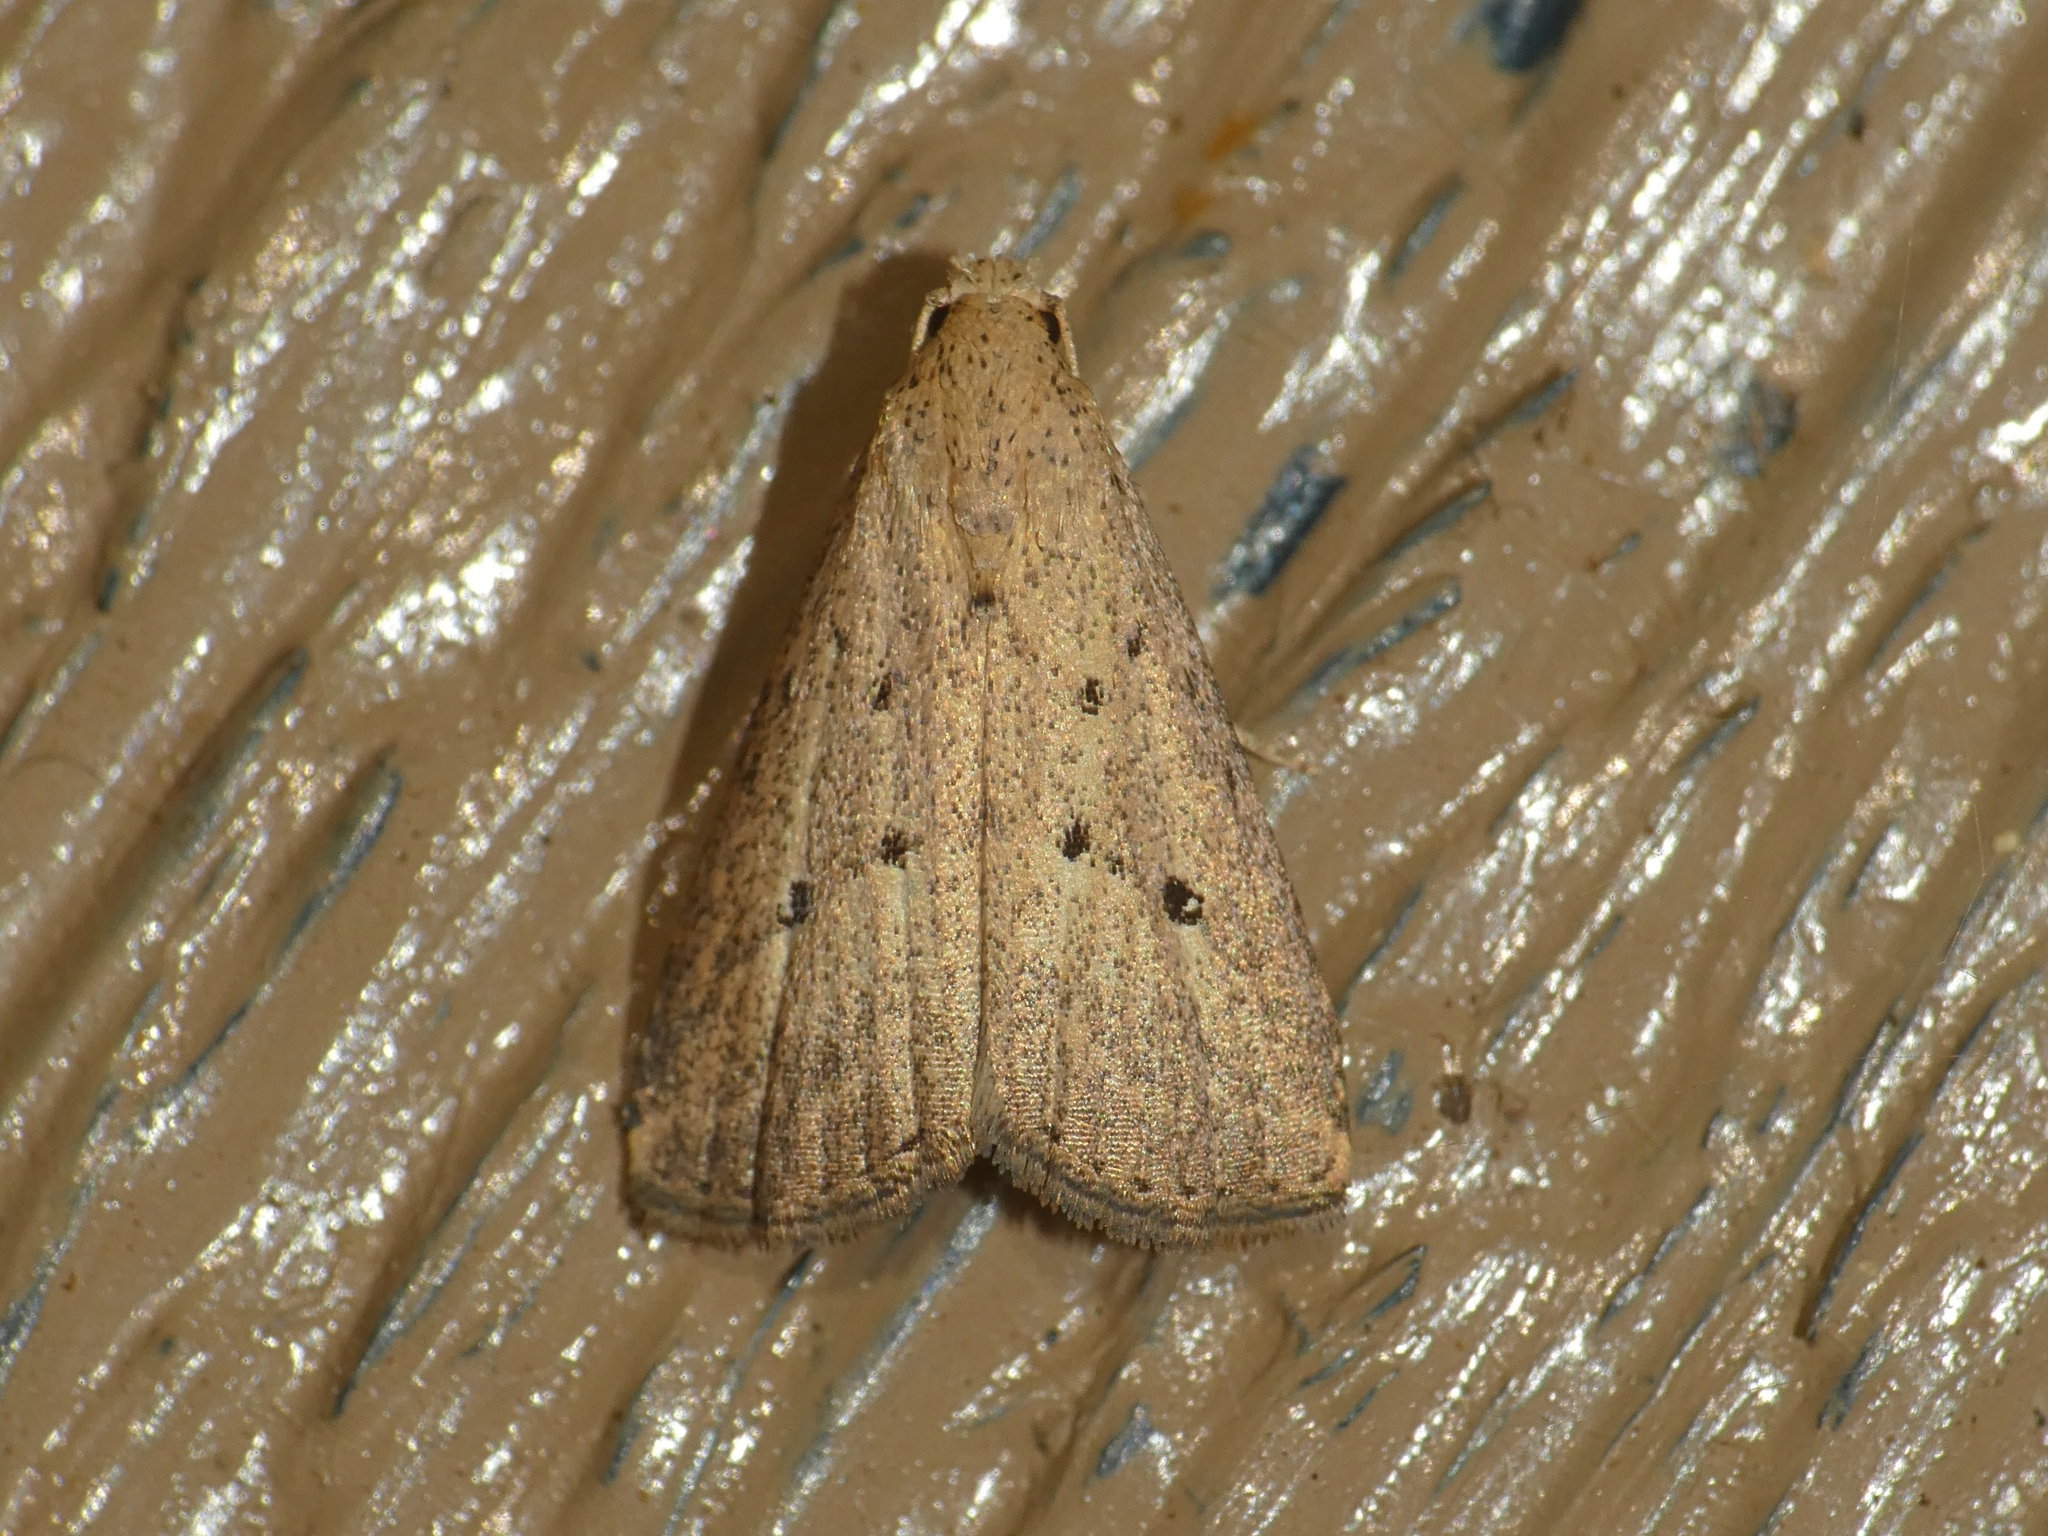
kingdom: Animalia
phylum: Arthropoda
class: Insecta
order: Lepidoptera
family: Erebidae
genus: Luceria
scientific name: Luceria oculalis
